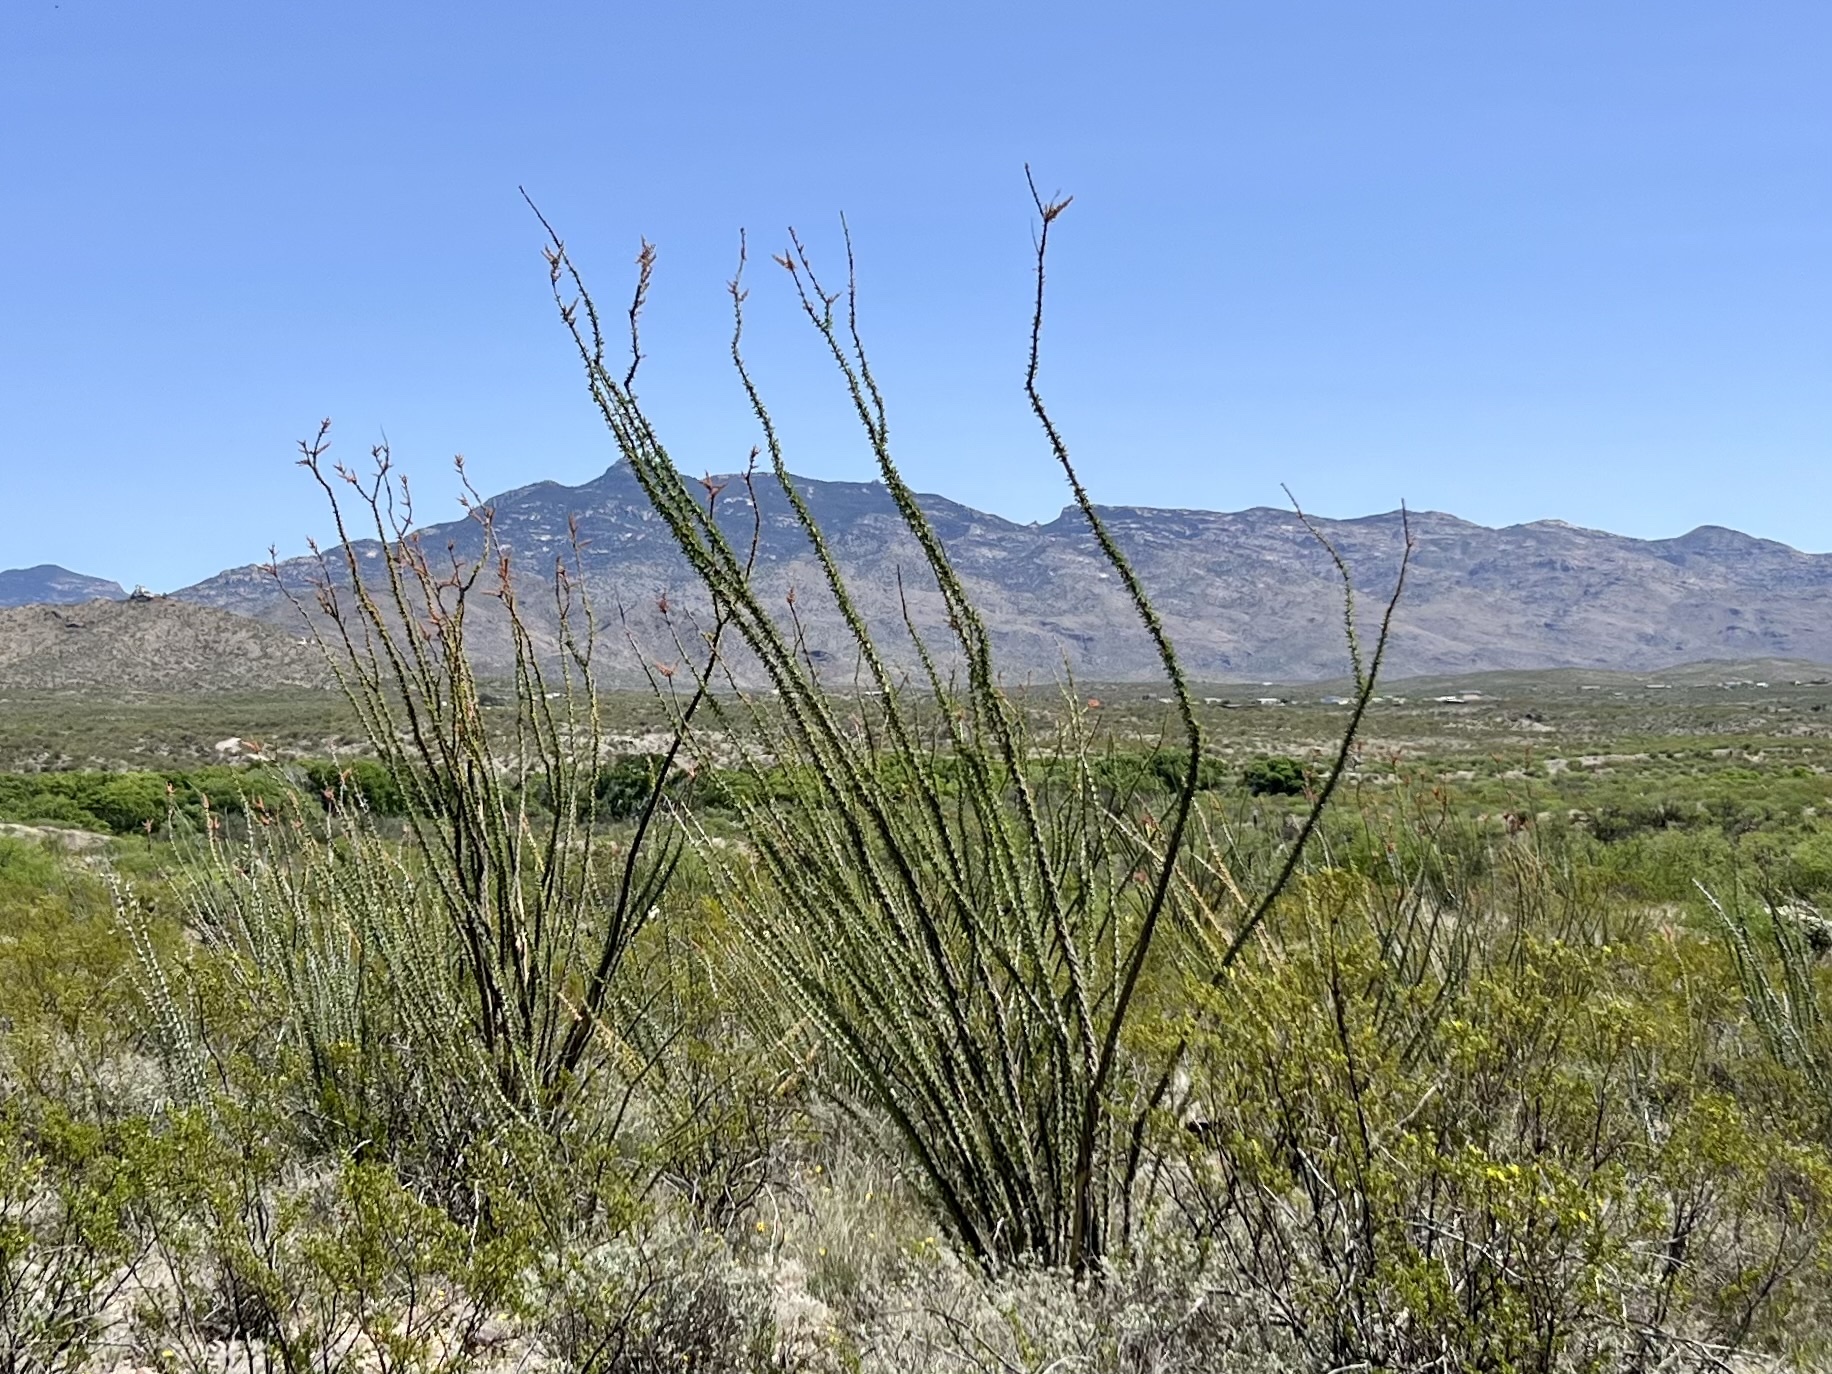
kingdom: Plantae
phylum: Tracheophyta
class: Magnoliopsida
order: Ericales
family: Fouquieriaceae
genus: Fouquieria
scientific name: Fouquieria splendens
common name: Vine-cactus
